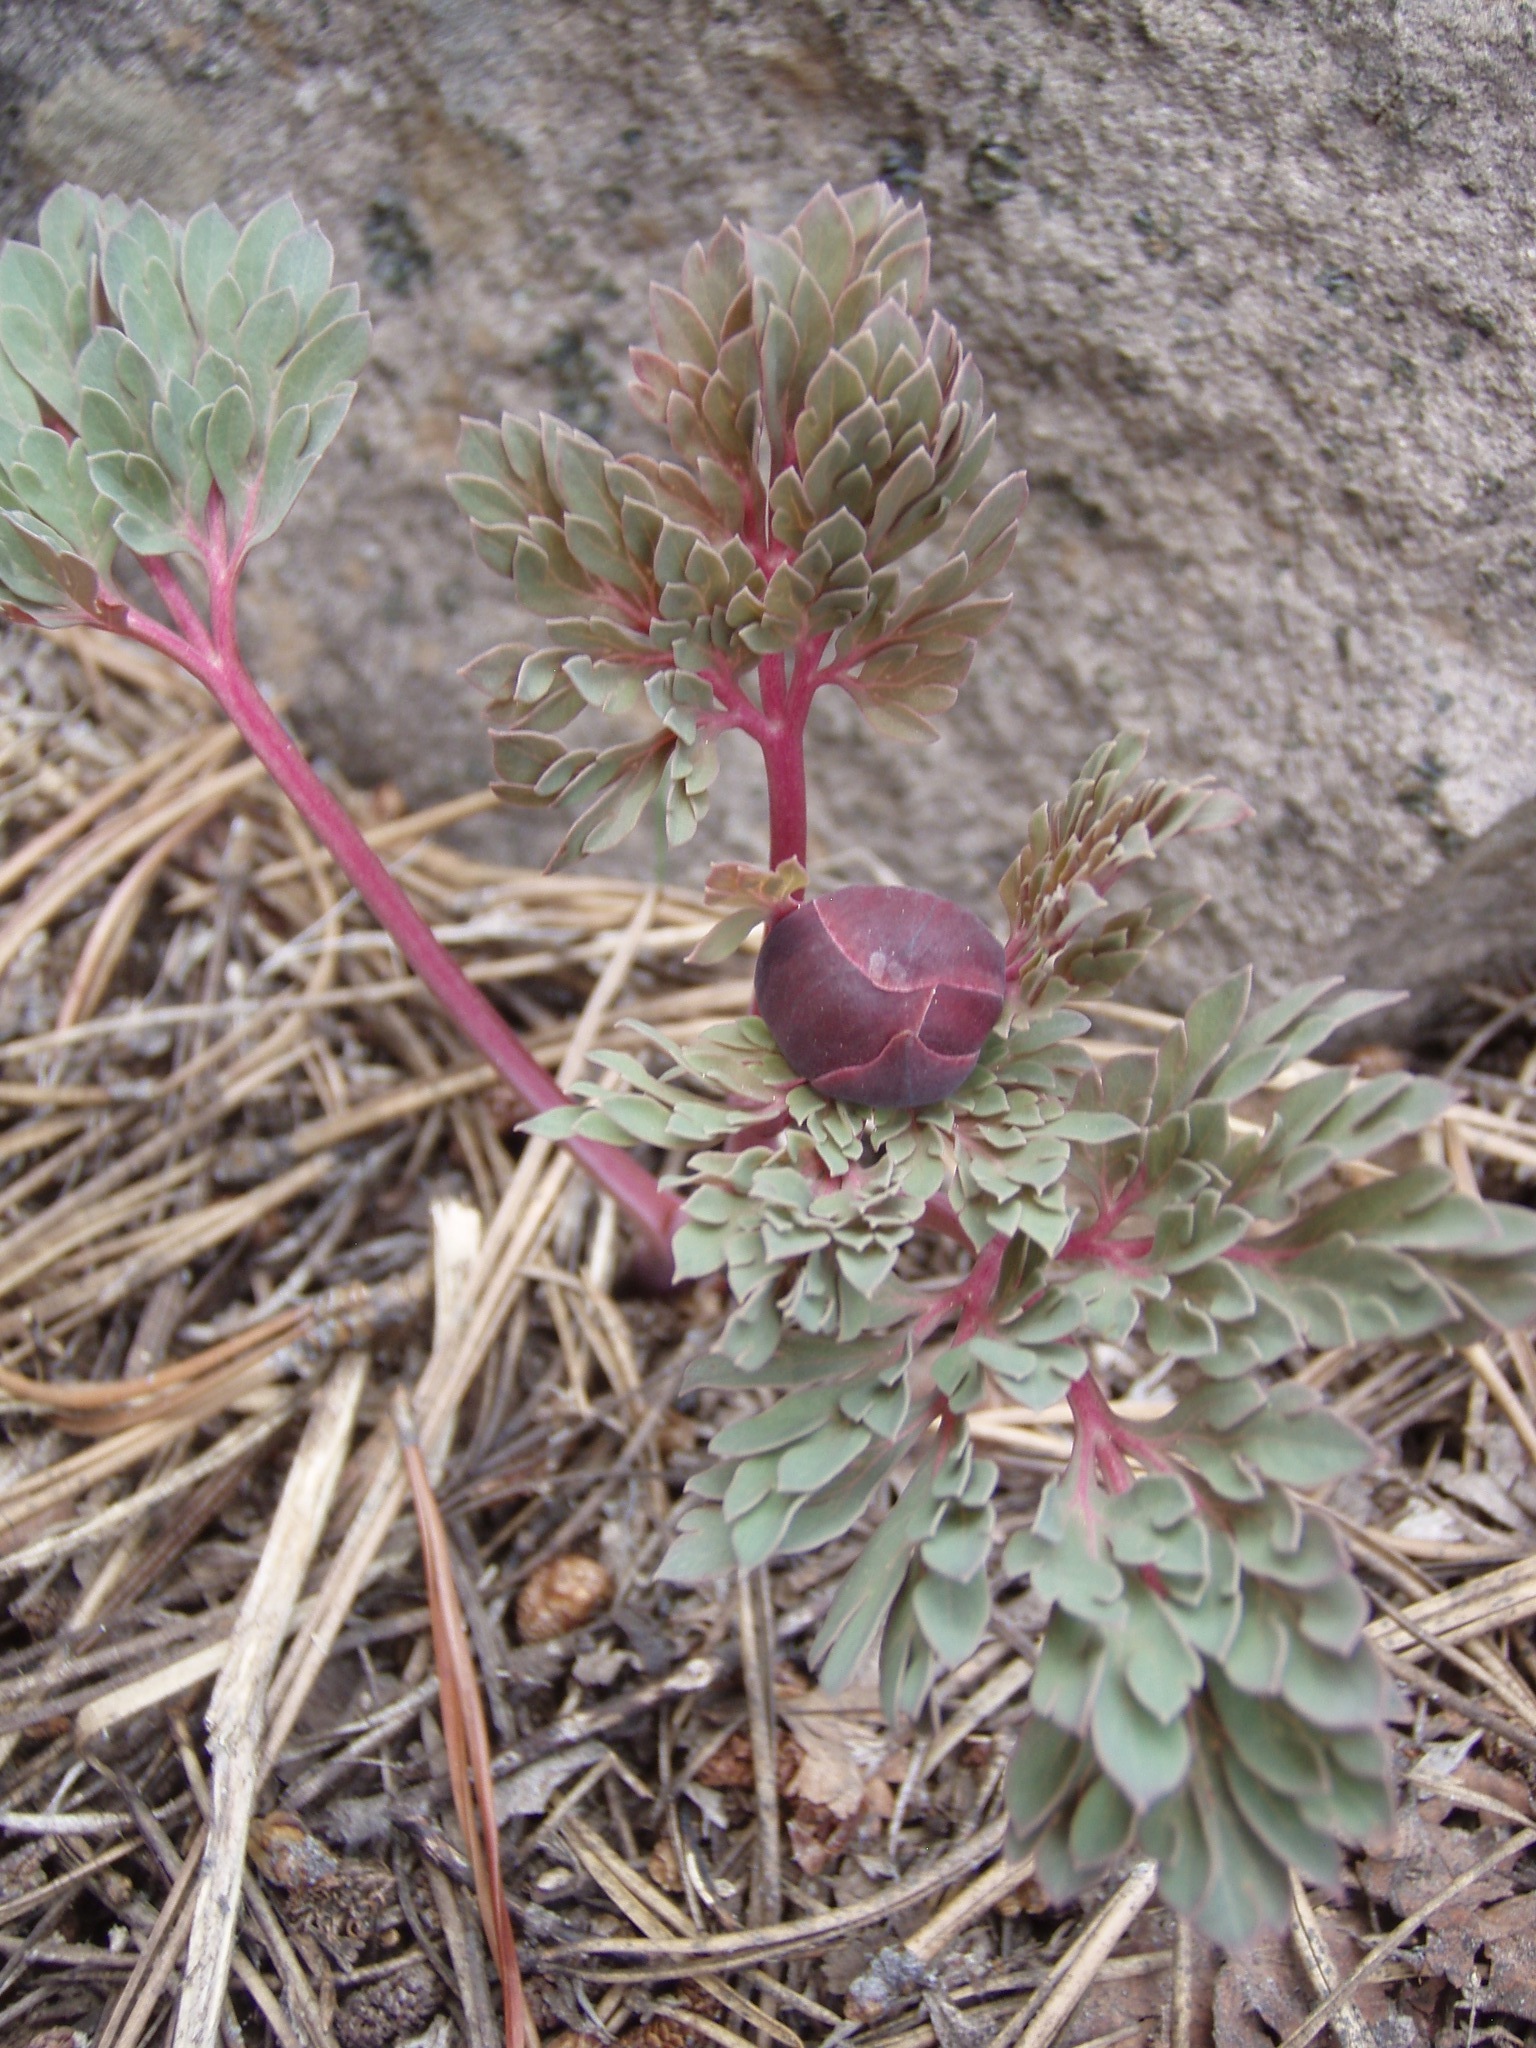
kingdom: Plantae
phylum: Tracheophyta
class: Magnoliopsida
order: Saxifragales
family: Paeoniaceae
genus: Paeonia
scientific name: Paeonia brownii
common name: Brown's peony
